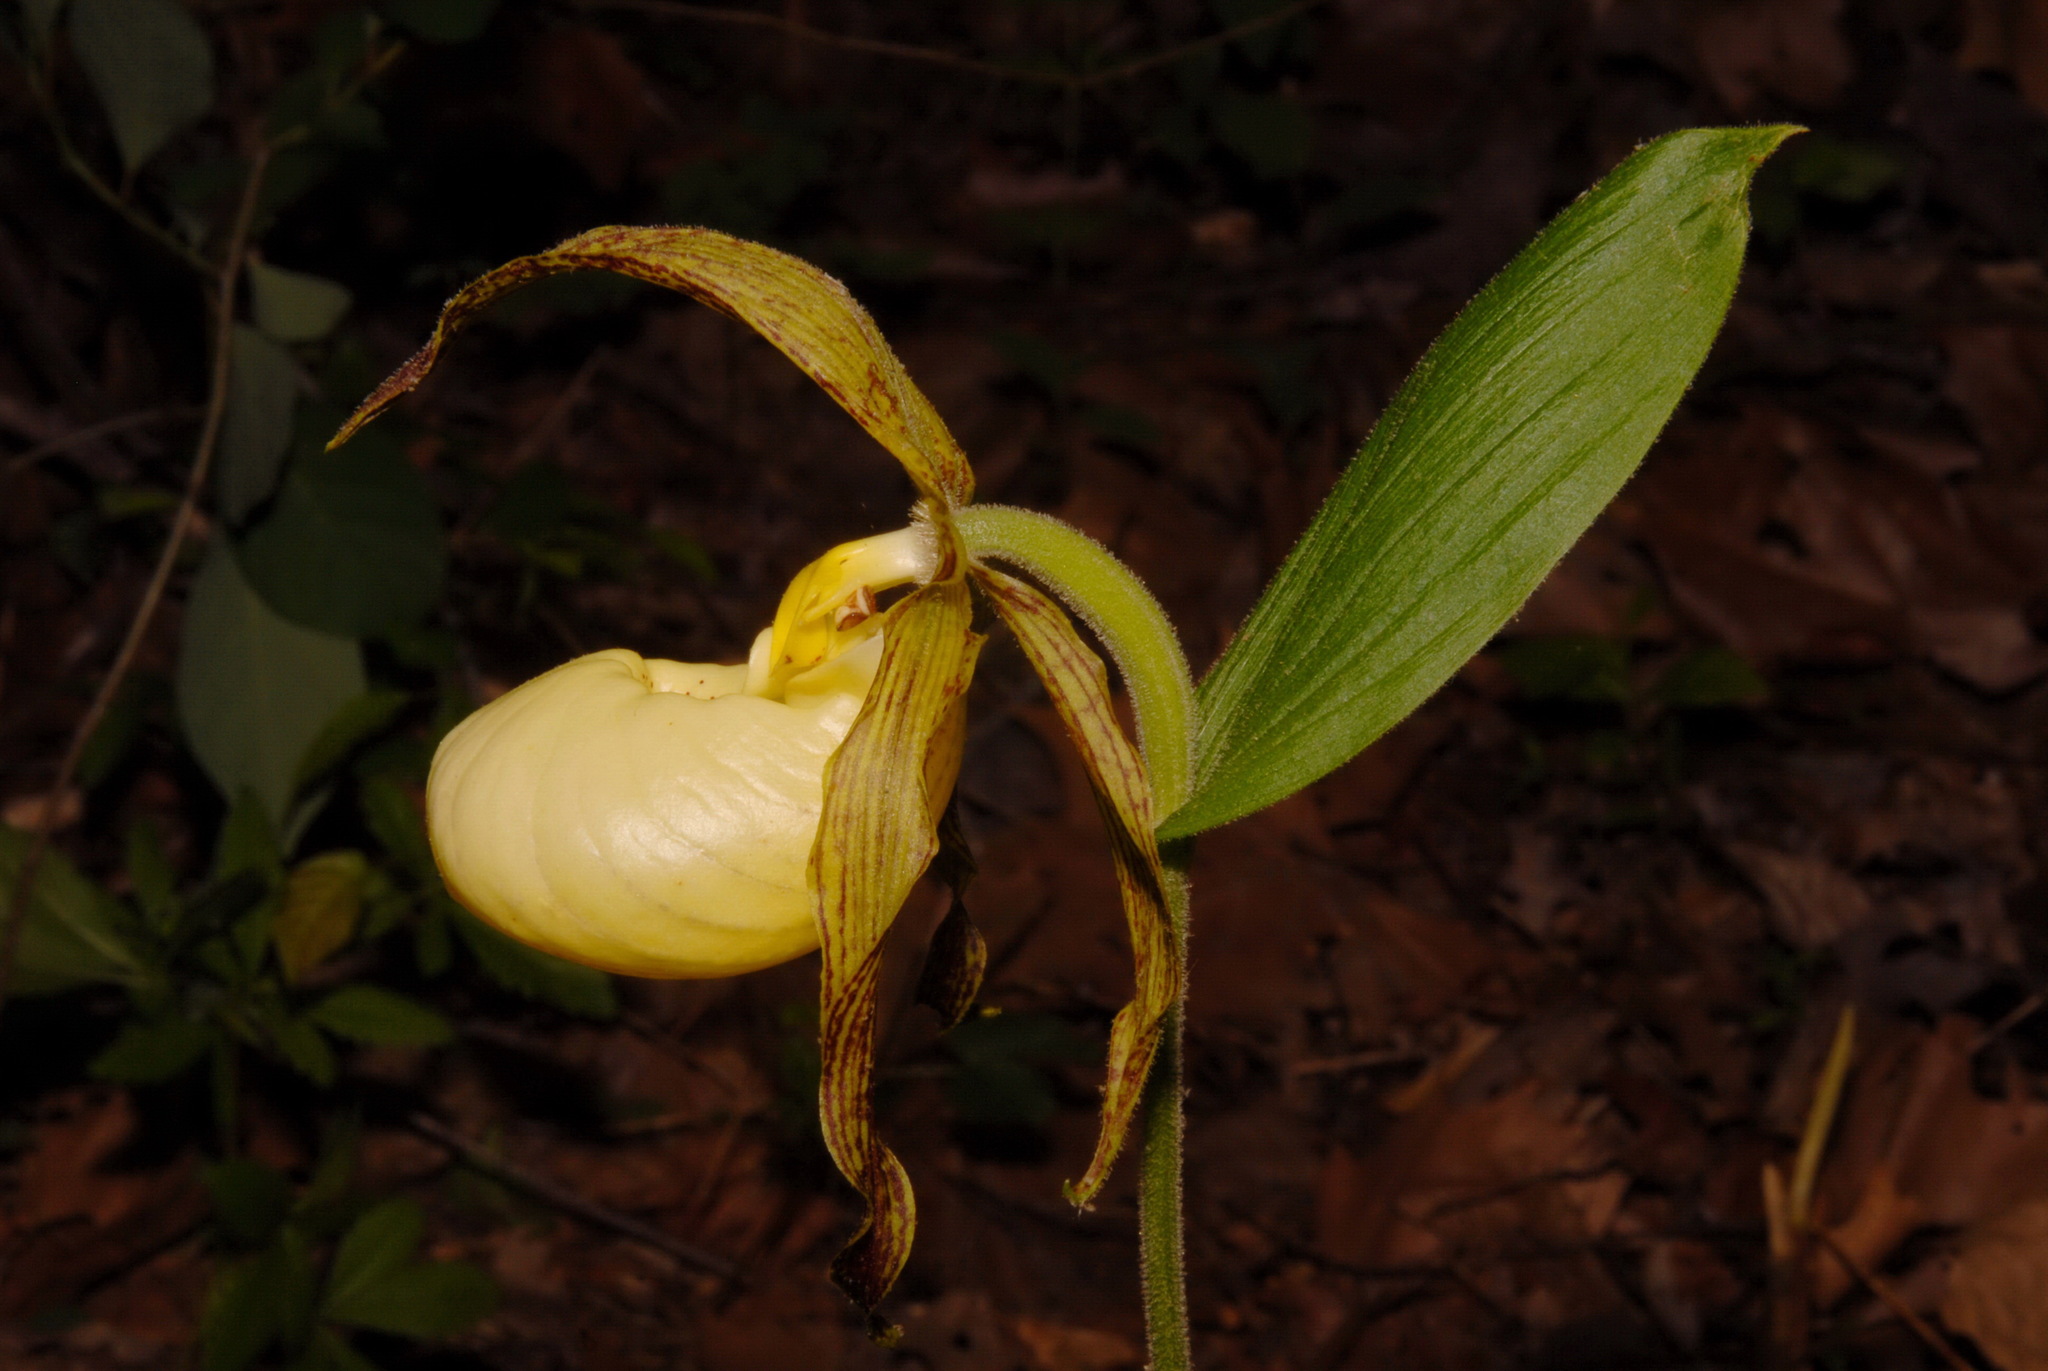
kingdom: Plantae
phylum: Tracheophyta
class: Liliopsida
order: Asparagales
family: Orchidaceae
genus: Cypripedium
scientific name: Cypripedium kentuckiense
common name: Kentucky lady's slipper
